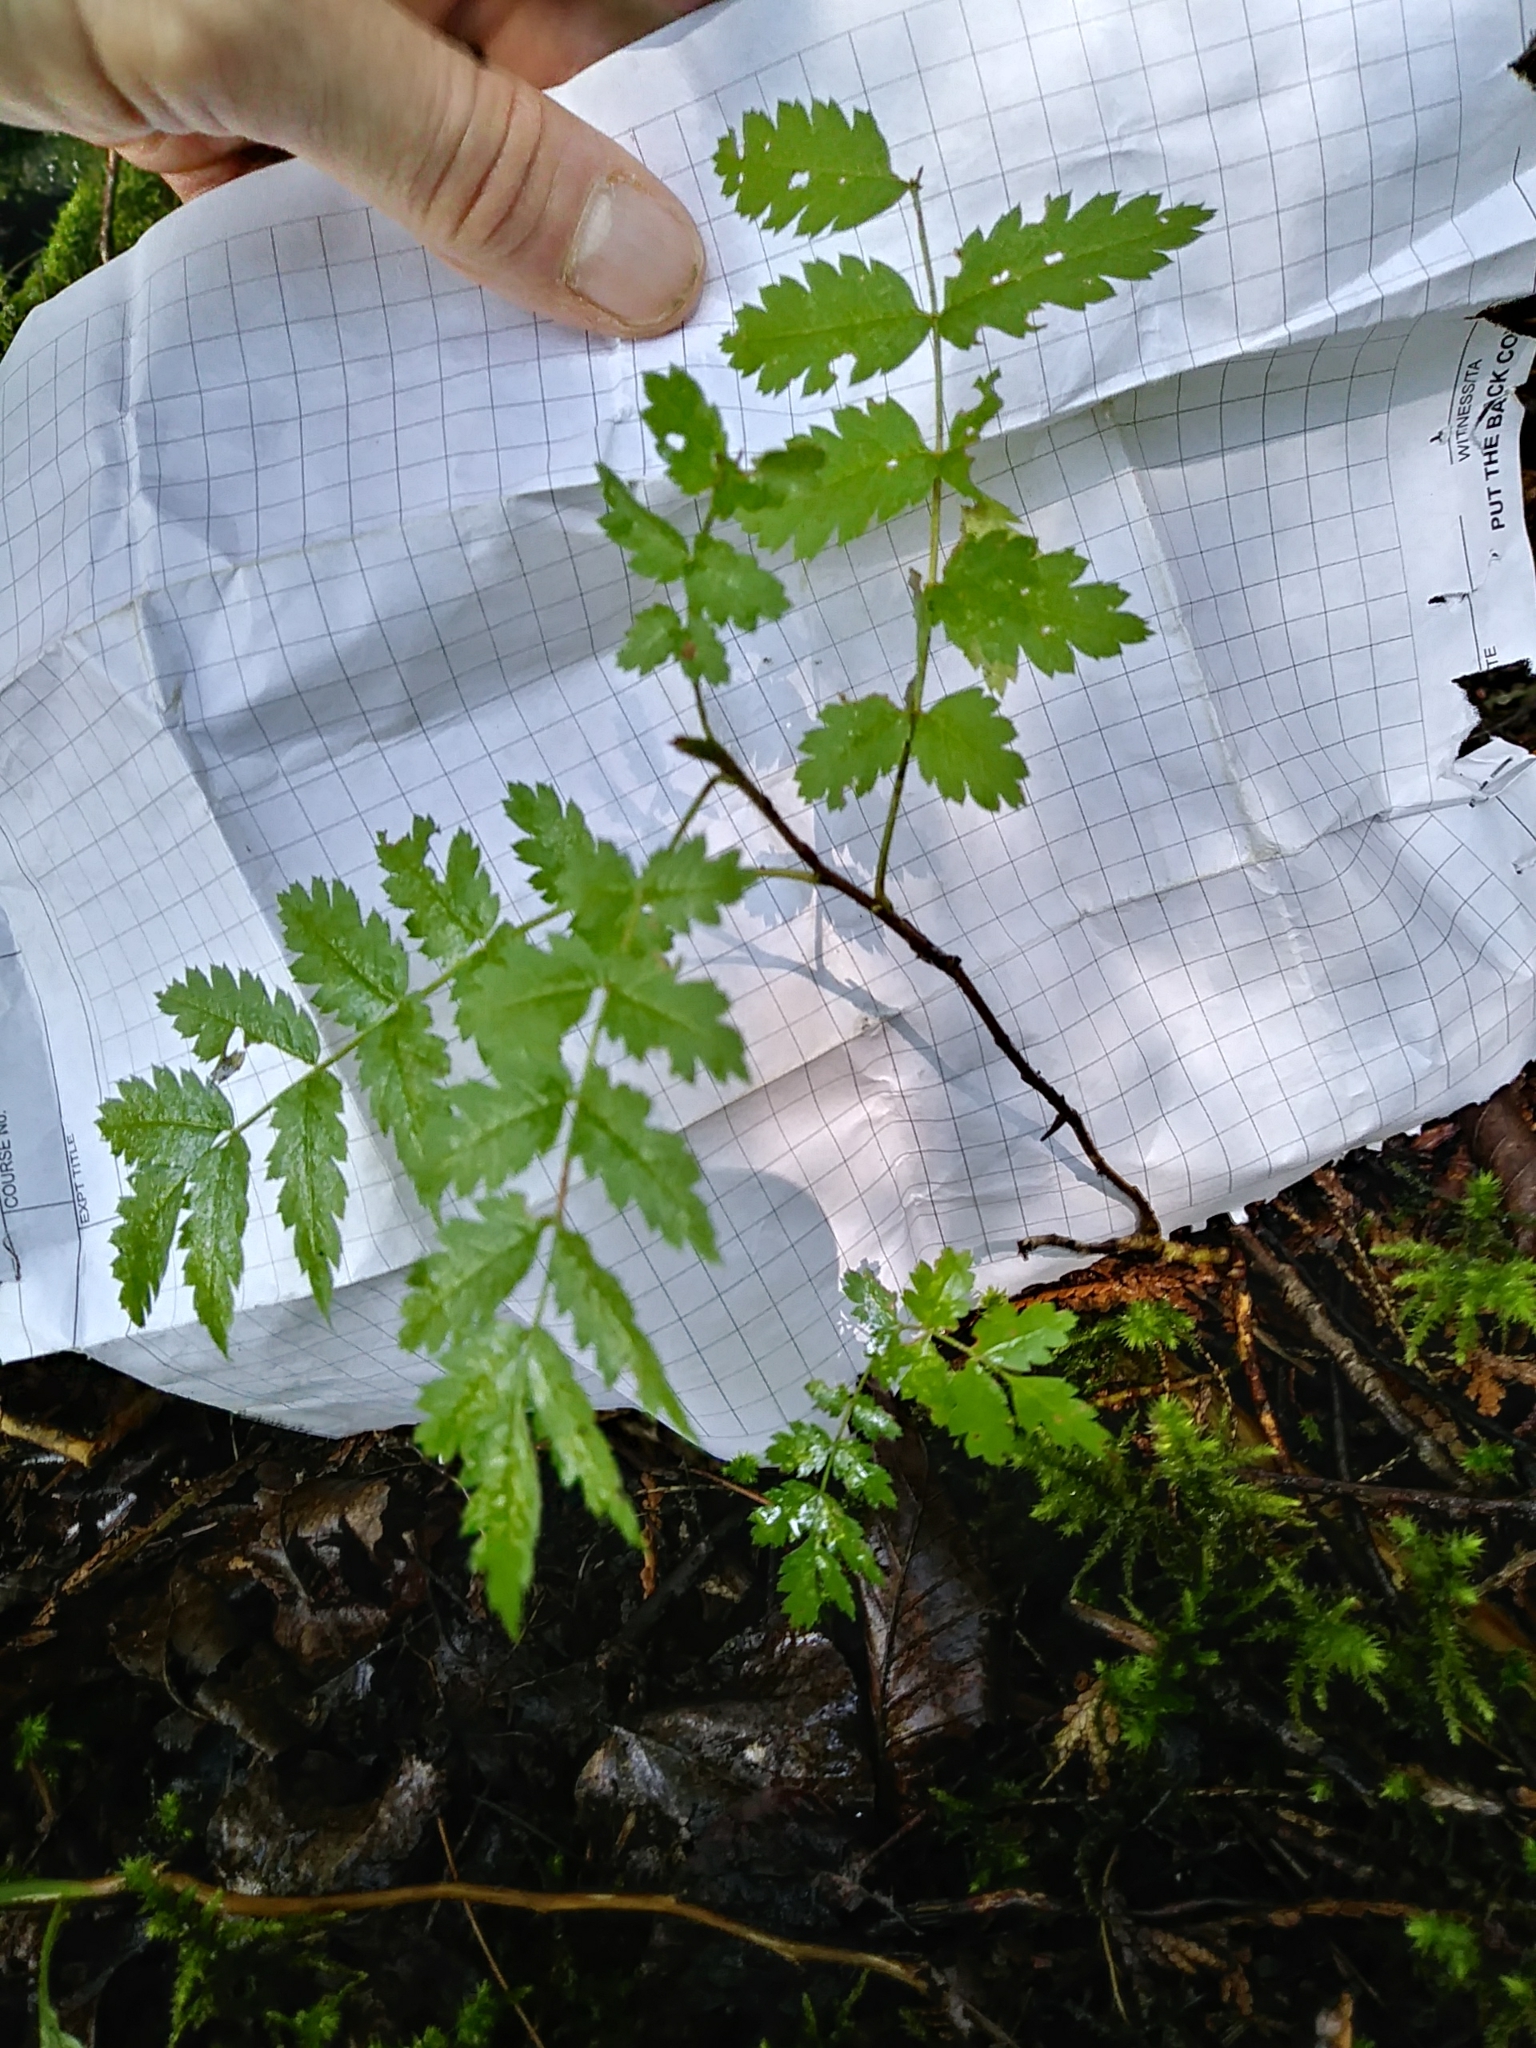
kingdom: Plantae
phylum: Tracheophyta
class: Magnoliopsida
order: Rosales
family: Rosaceae
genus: Sorbus
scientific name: Sorbus aucuparia
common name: Rowan
